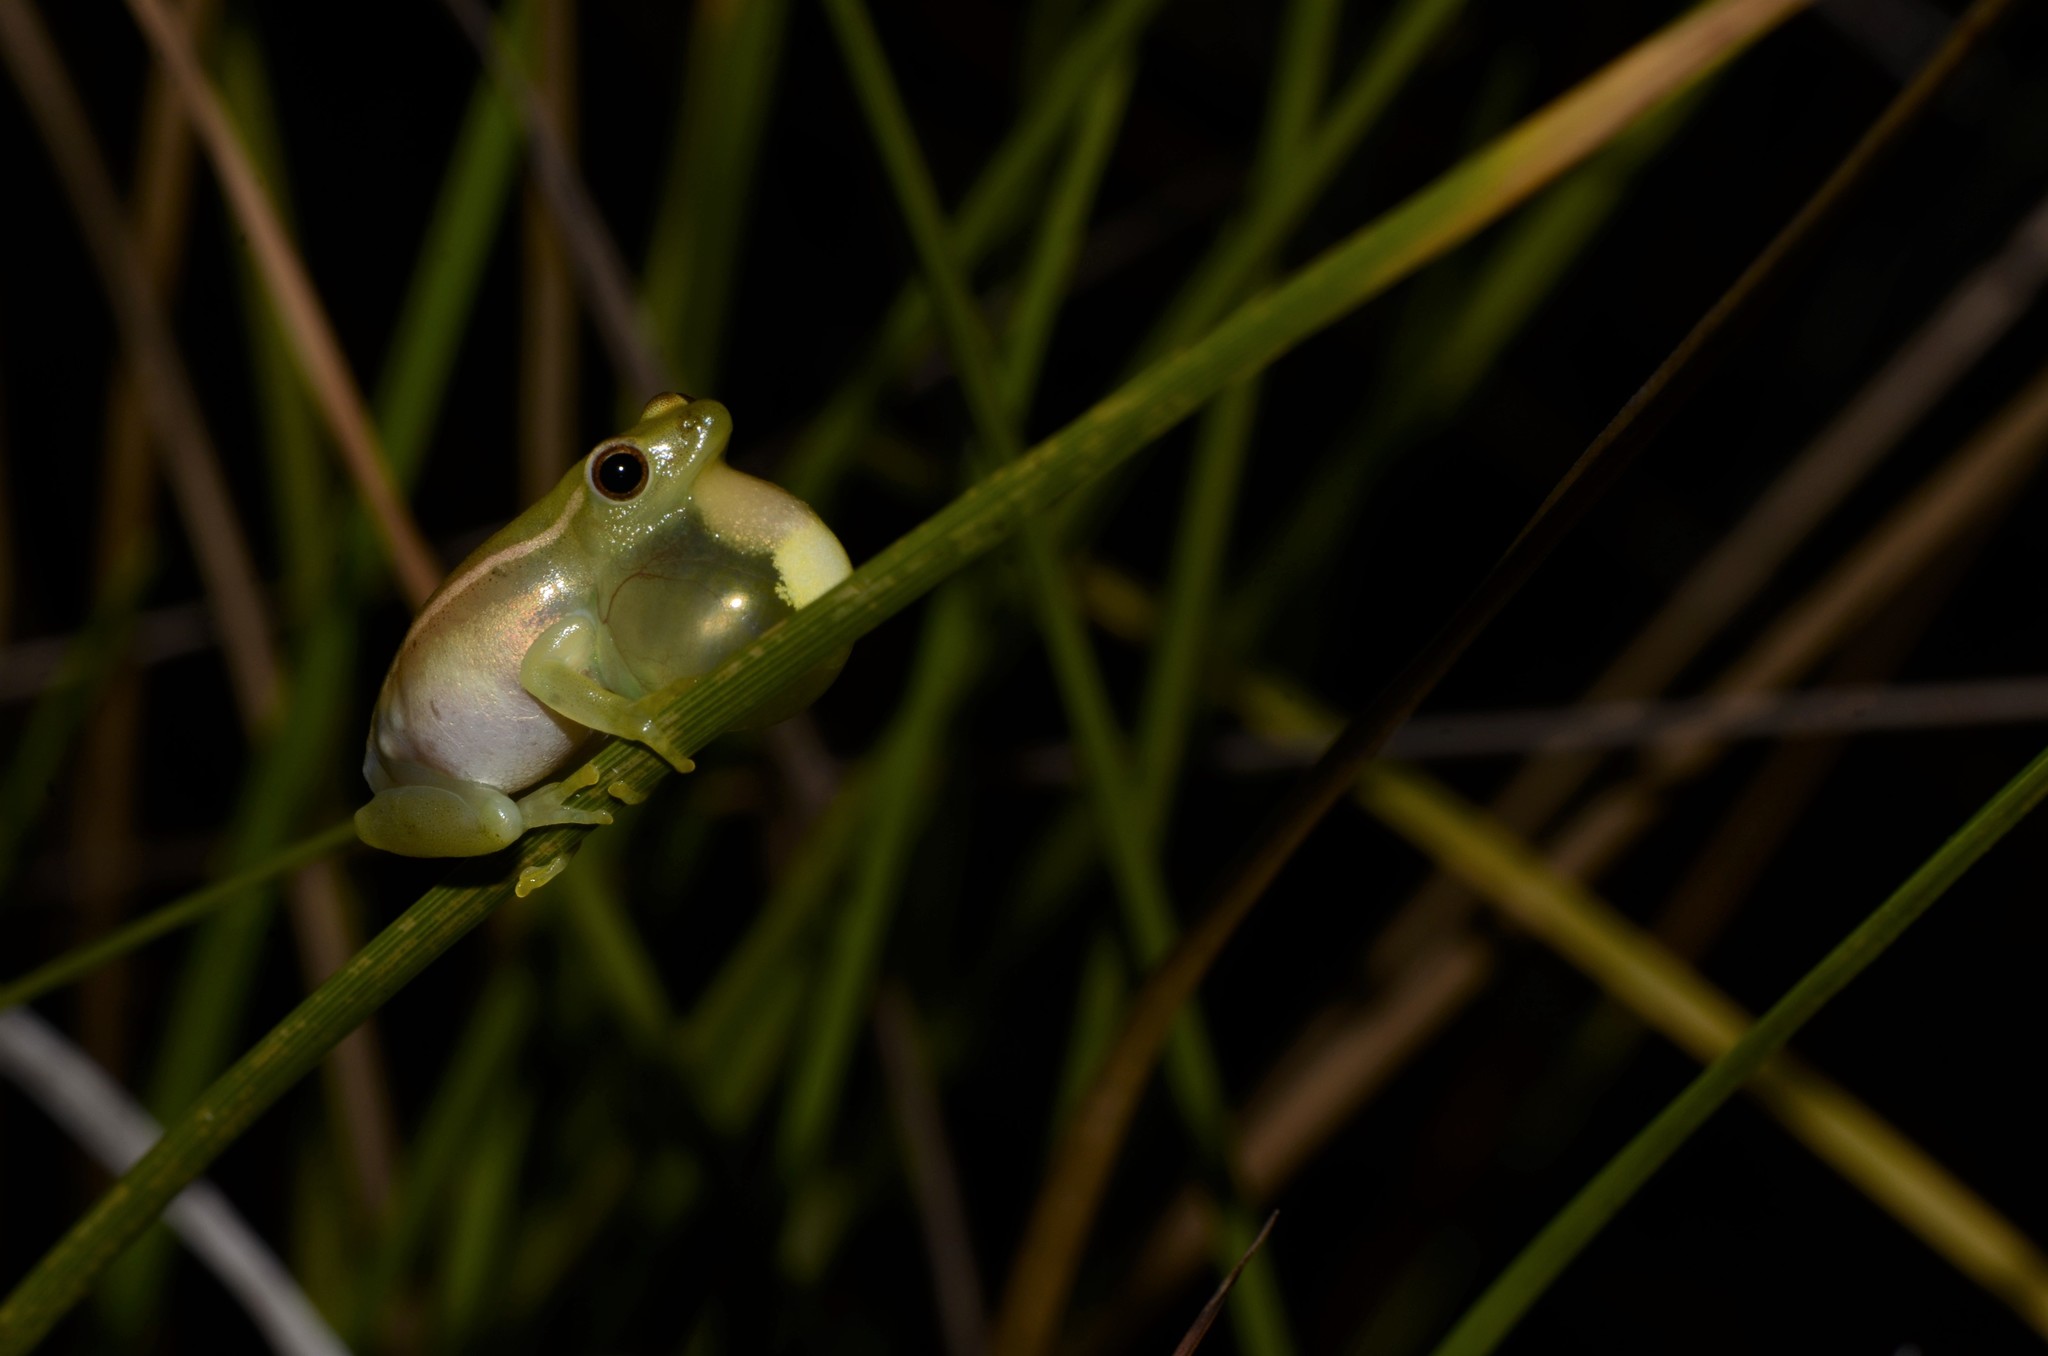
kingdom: Animalia
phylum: Chordata
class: Amphibia
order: Anura
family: Hyperoliidae
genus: Hyperolius
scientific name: Hyperolius microps
